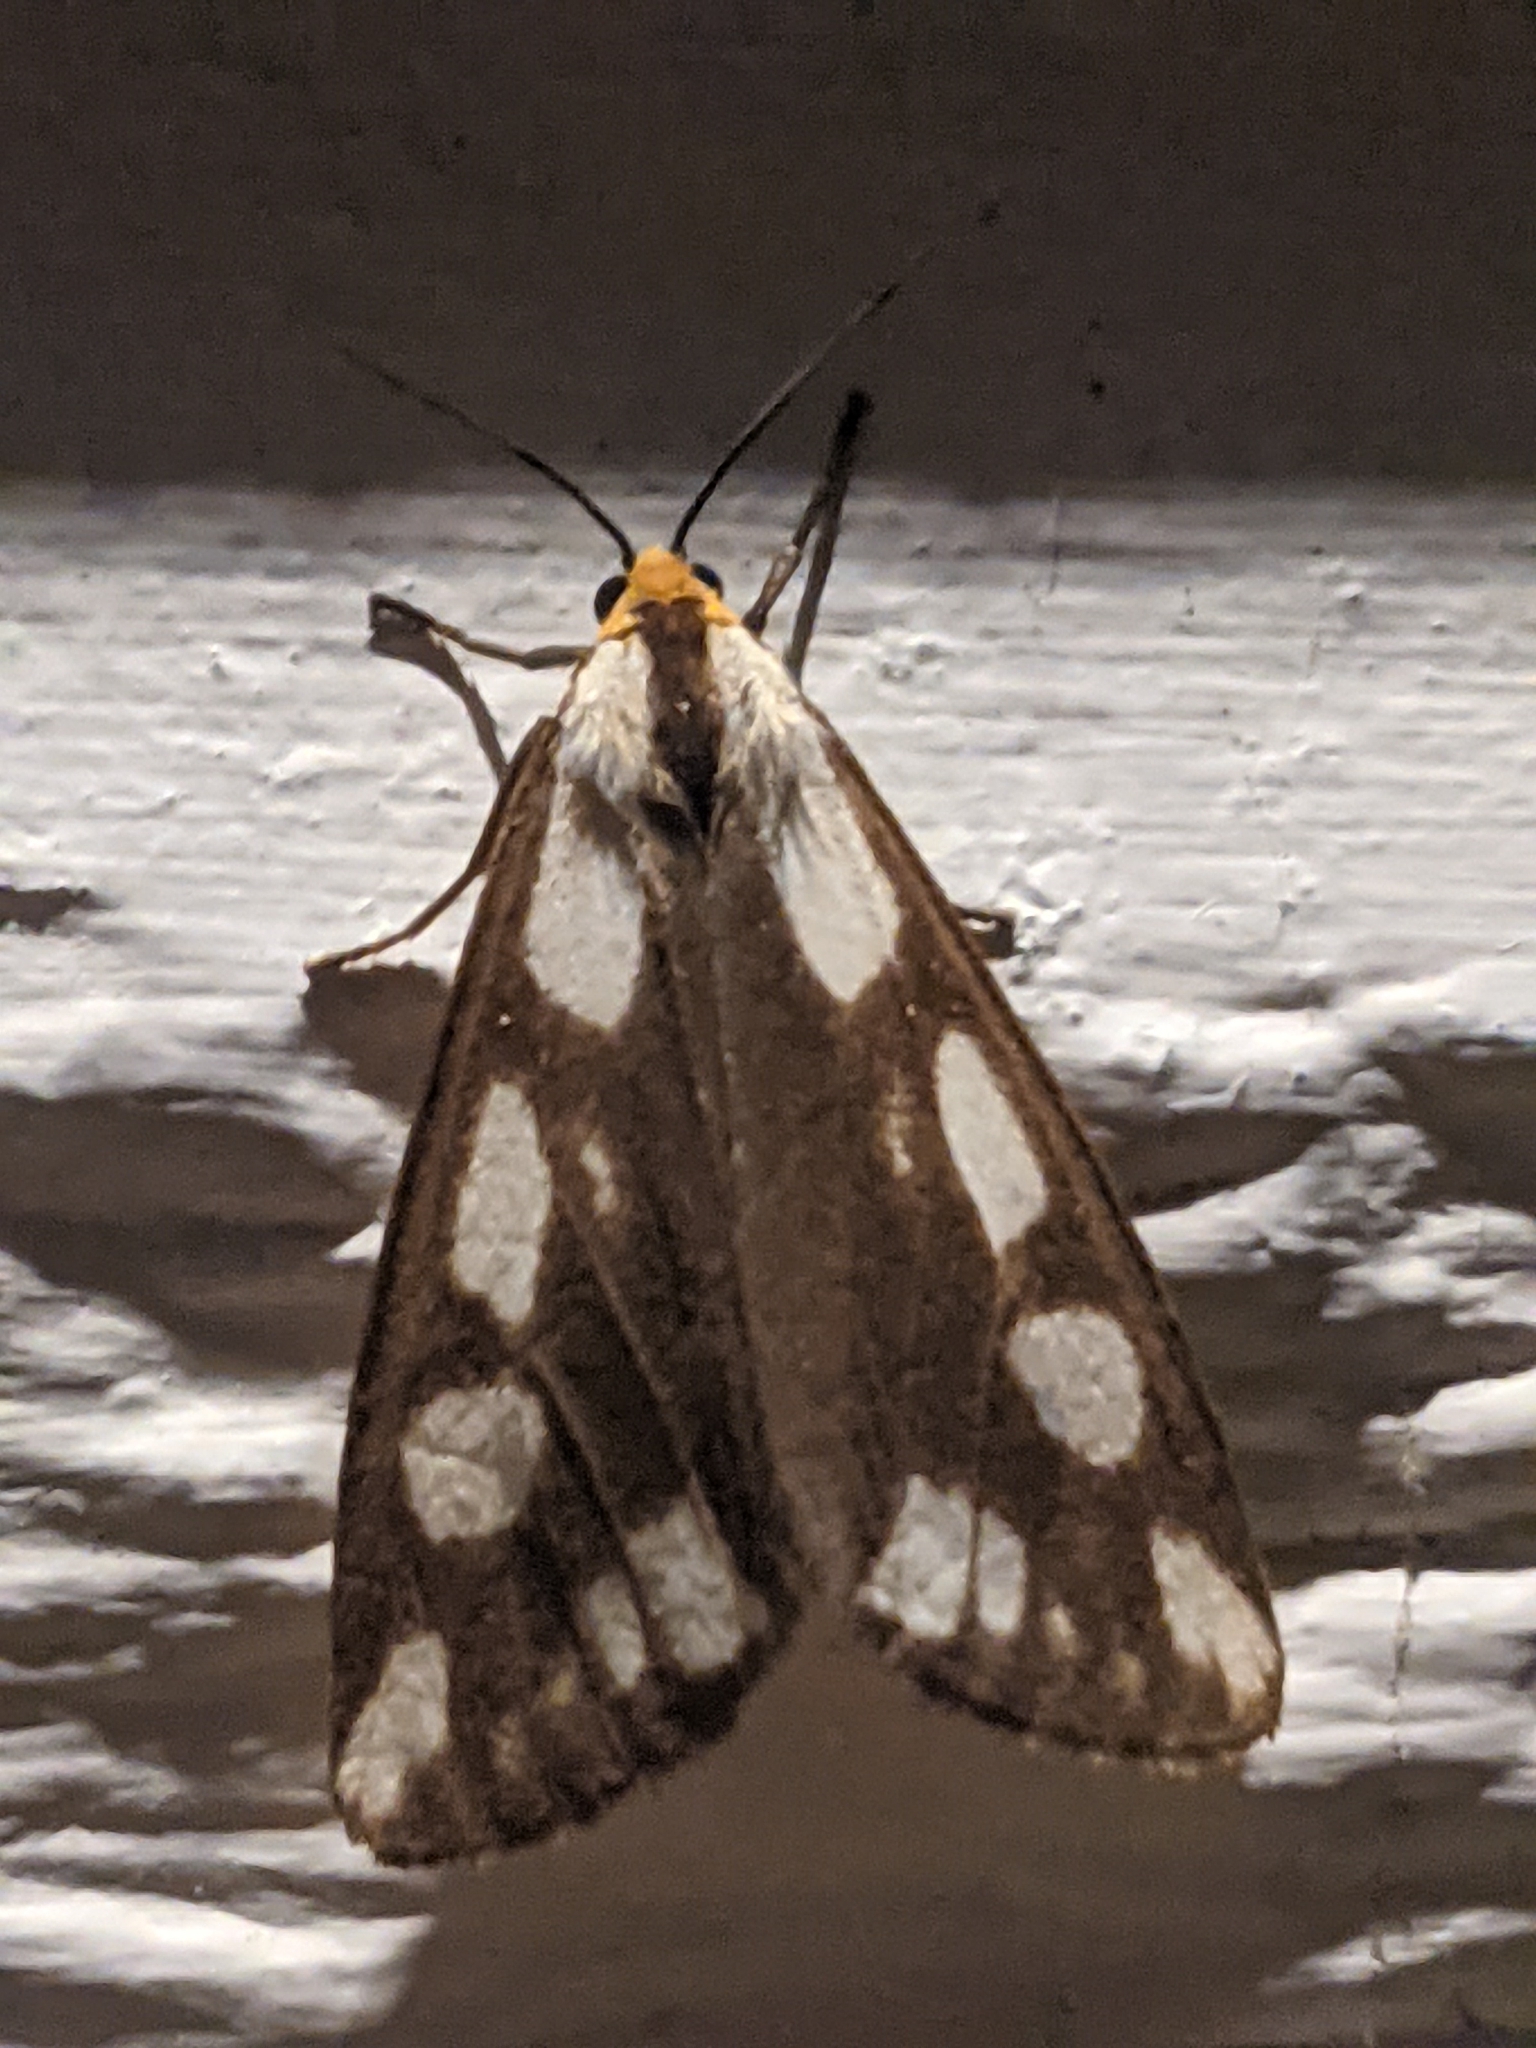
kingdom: Animalia
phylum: Arthropoda
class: Insecta
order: Lepidoptera
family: Erebidae
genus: Haploa
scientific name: Haploa confusa
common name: Confused haploa moth
